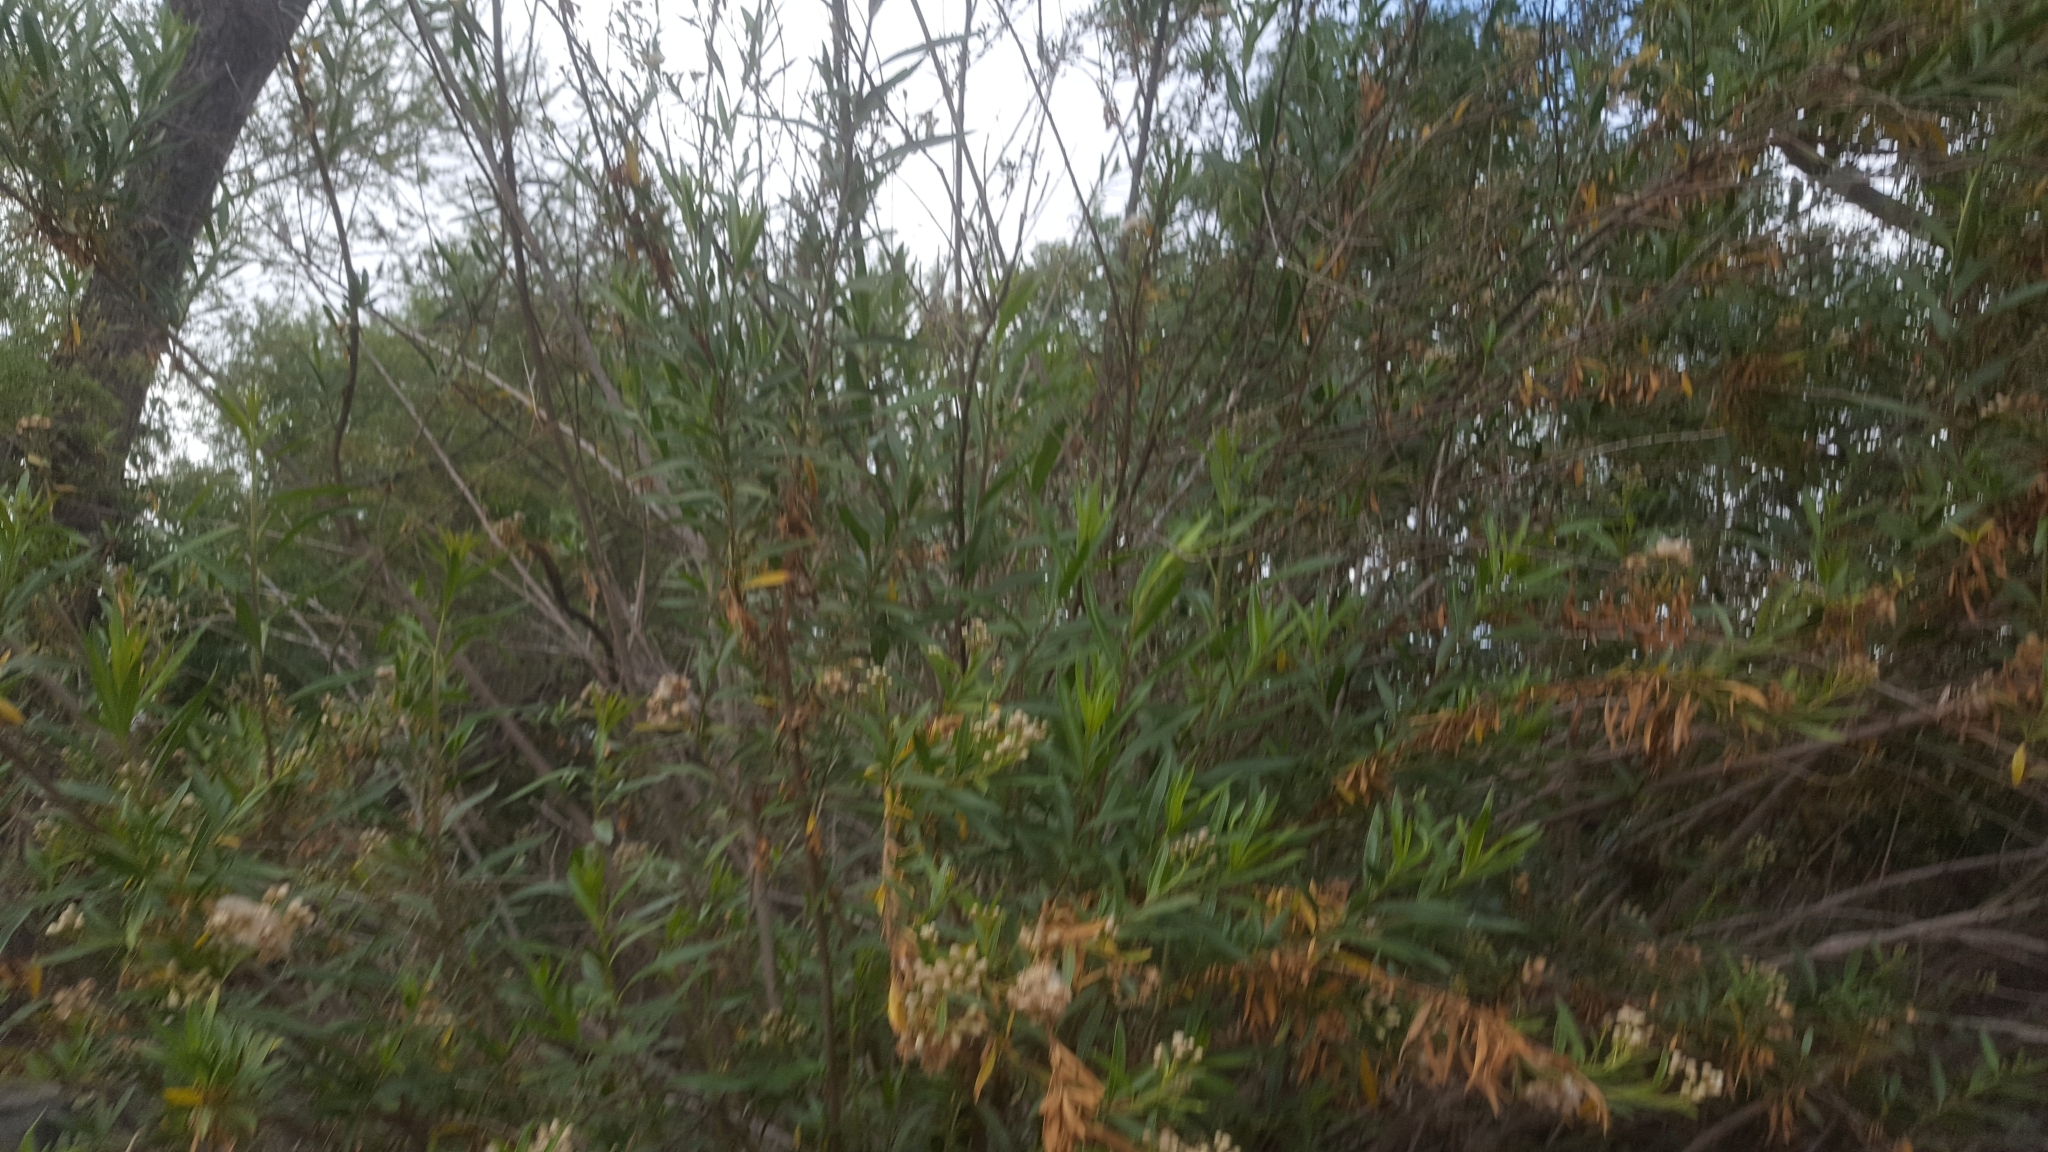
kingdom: Plantae
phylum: Tracheophyta
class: Magnoliopsida
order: Asterales
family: Asteraceae
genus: Baccharis
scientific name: Baccharis salicifolia
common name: Sticky baccharis
